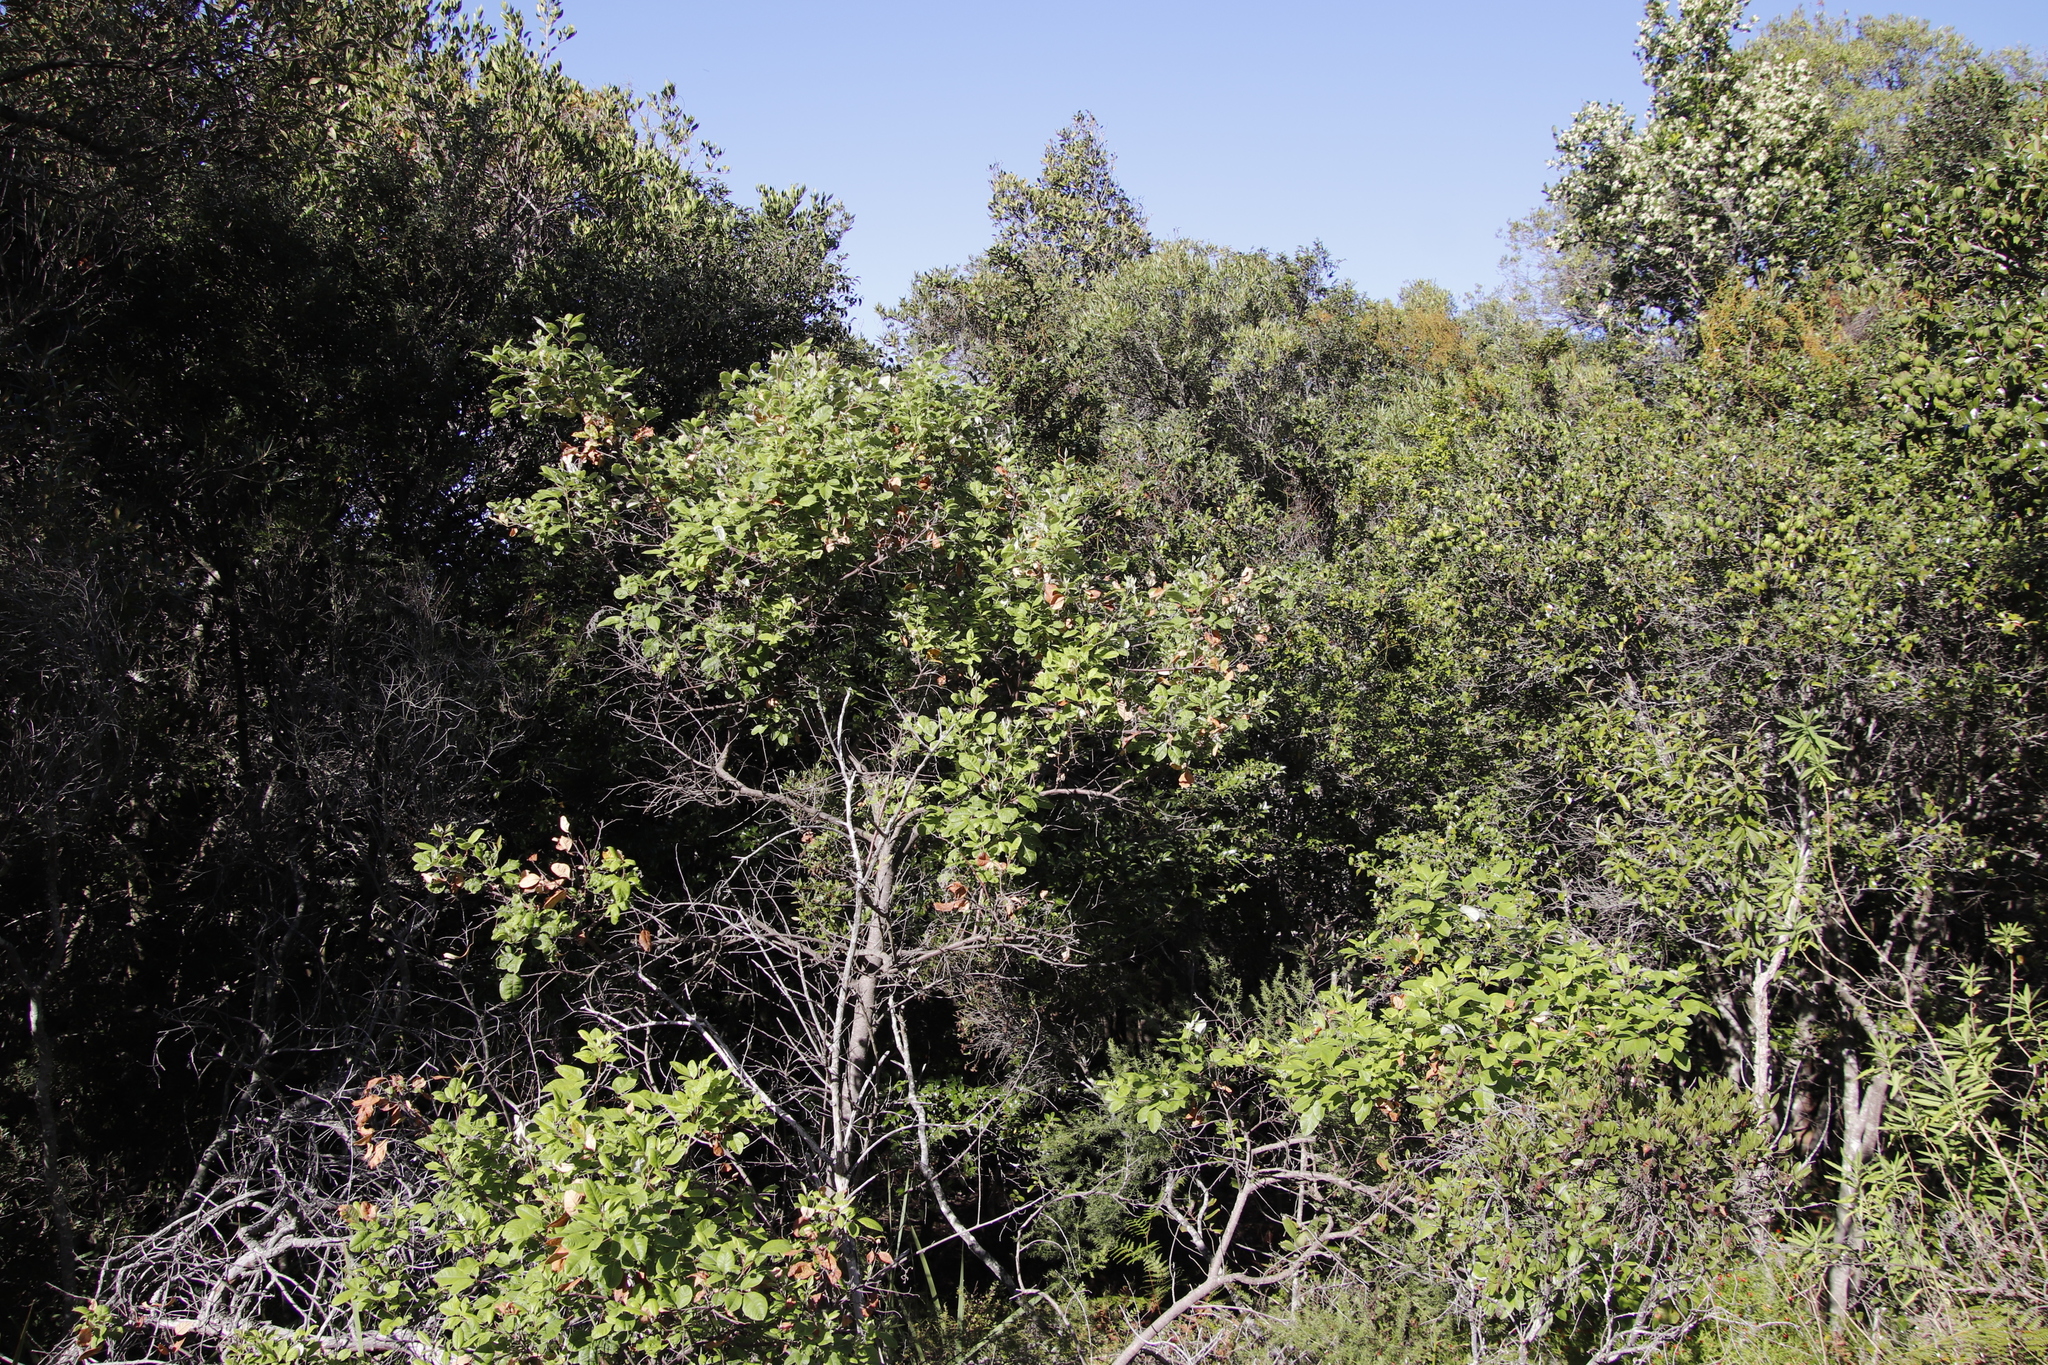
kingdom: Plantae
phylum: Tracheophyta
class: Magnoliopsida
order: Sapindales
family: Anacardiaceae
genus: Searsia
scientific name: Searsia tomentosa
